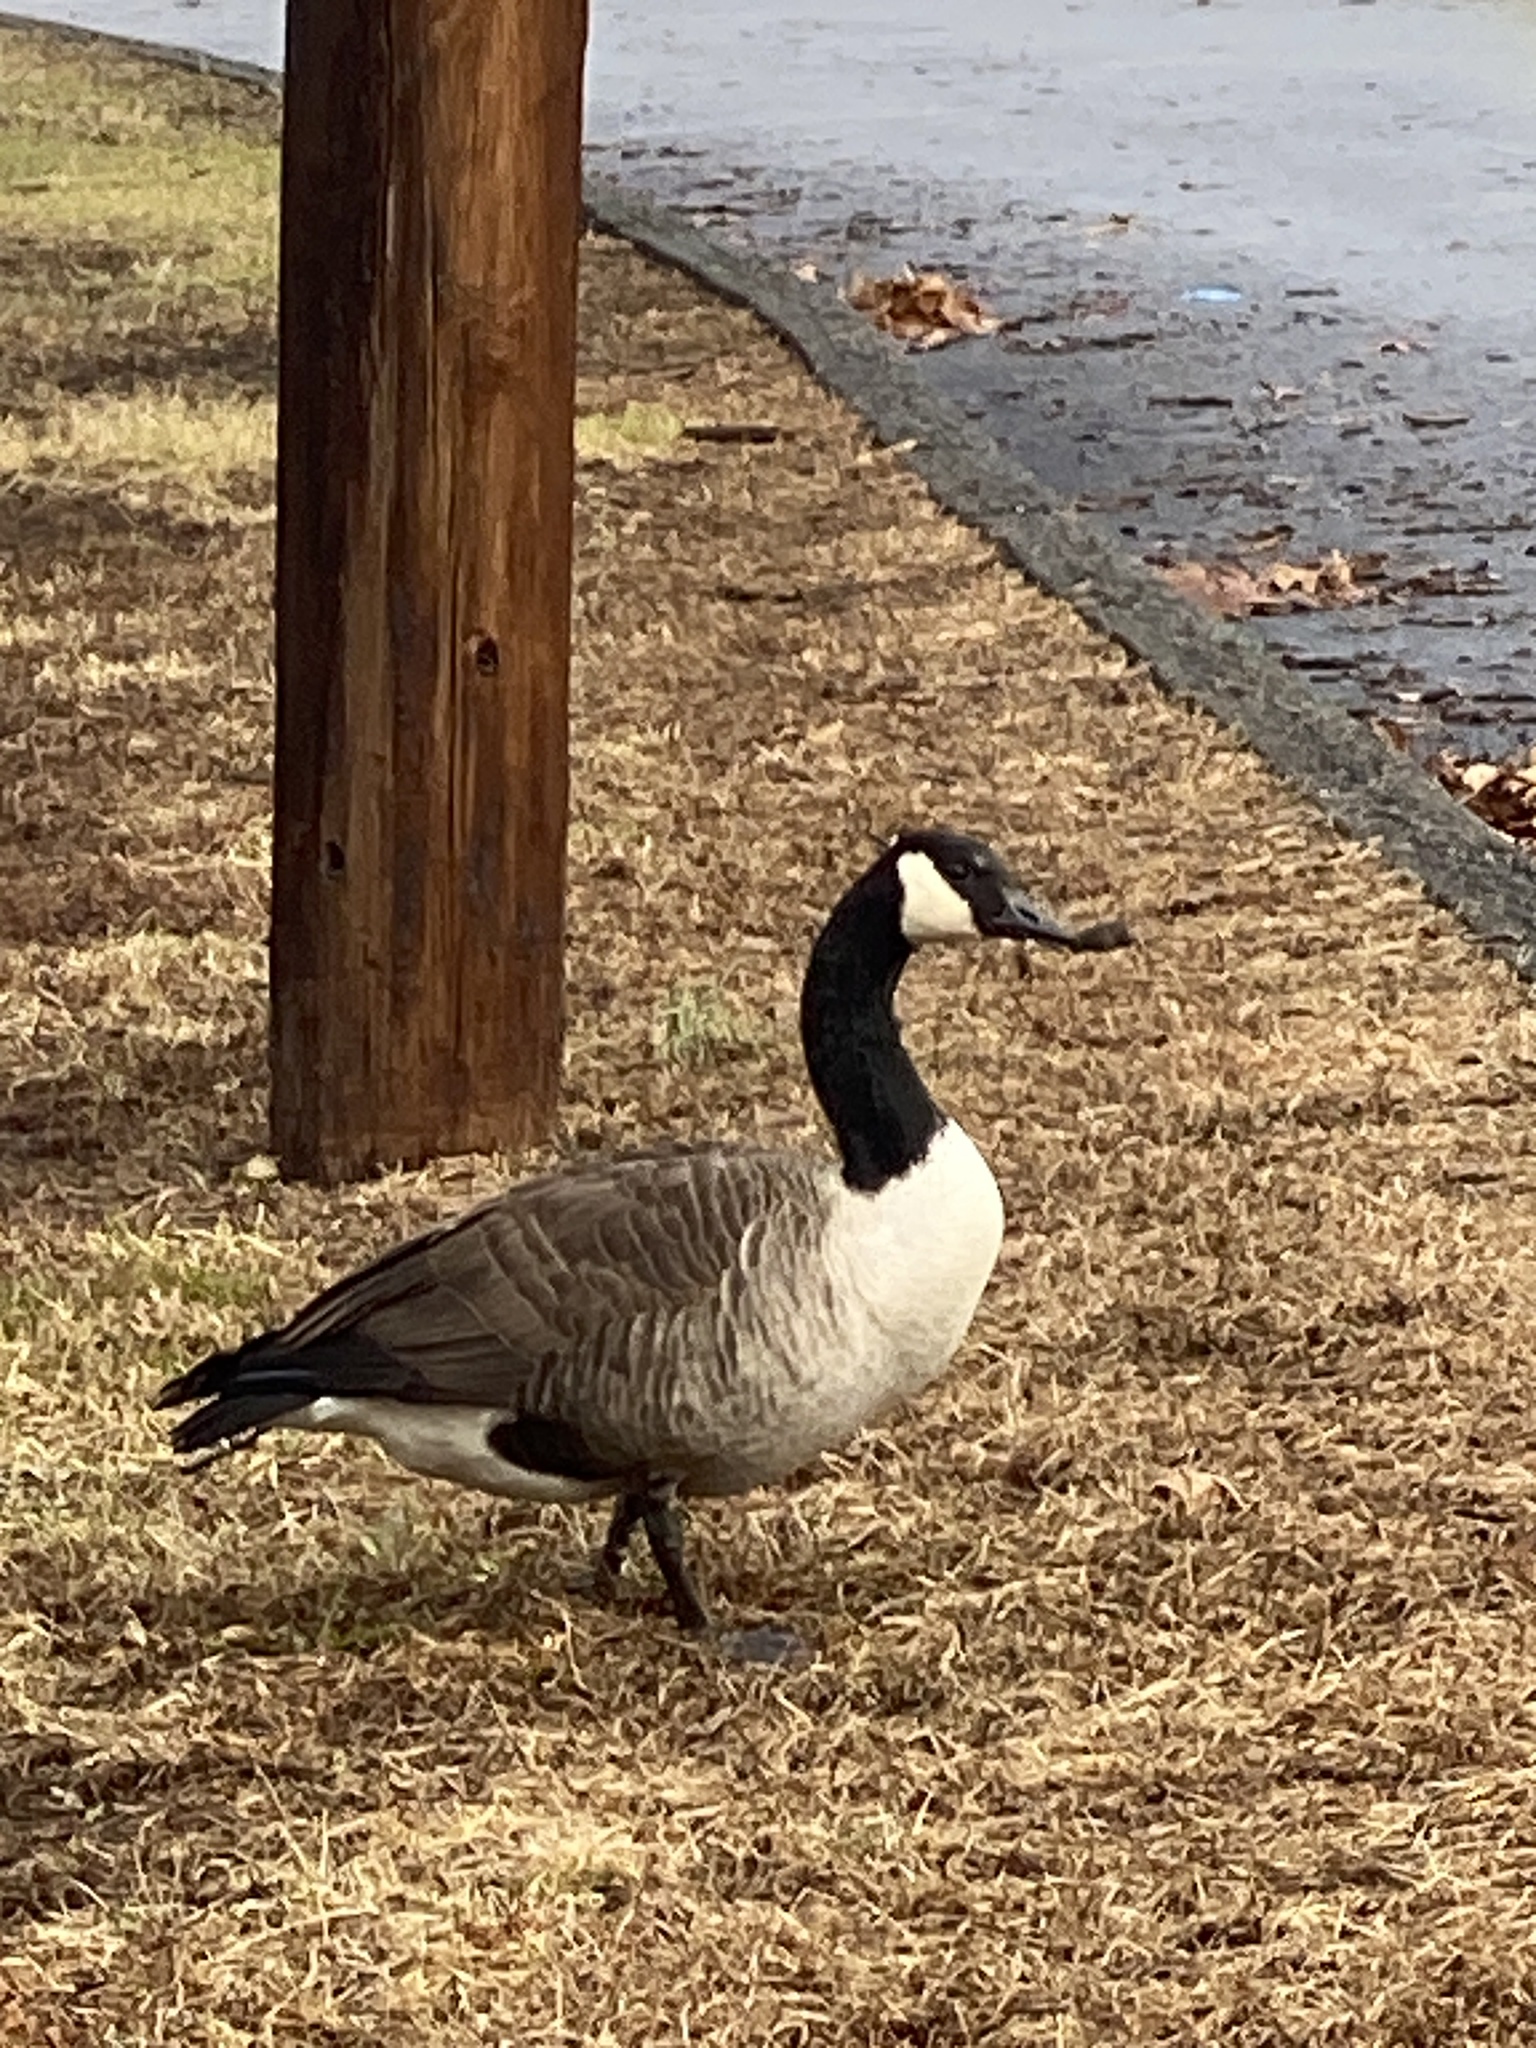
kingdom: Animalia
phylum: Chordata
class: Aves
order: Anseriformes
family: Anatidae
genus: Branta
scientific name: Branta canadensis
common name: Canada goose
